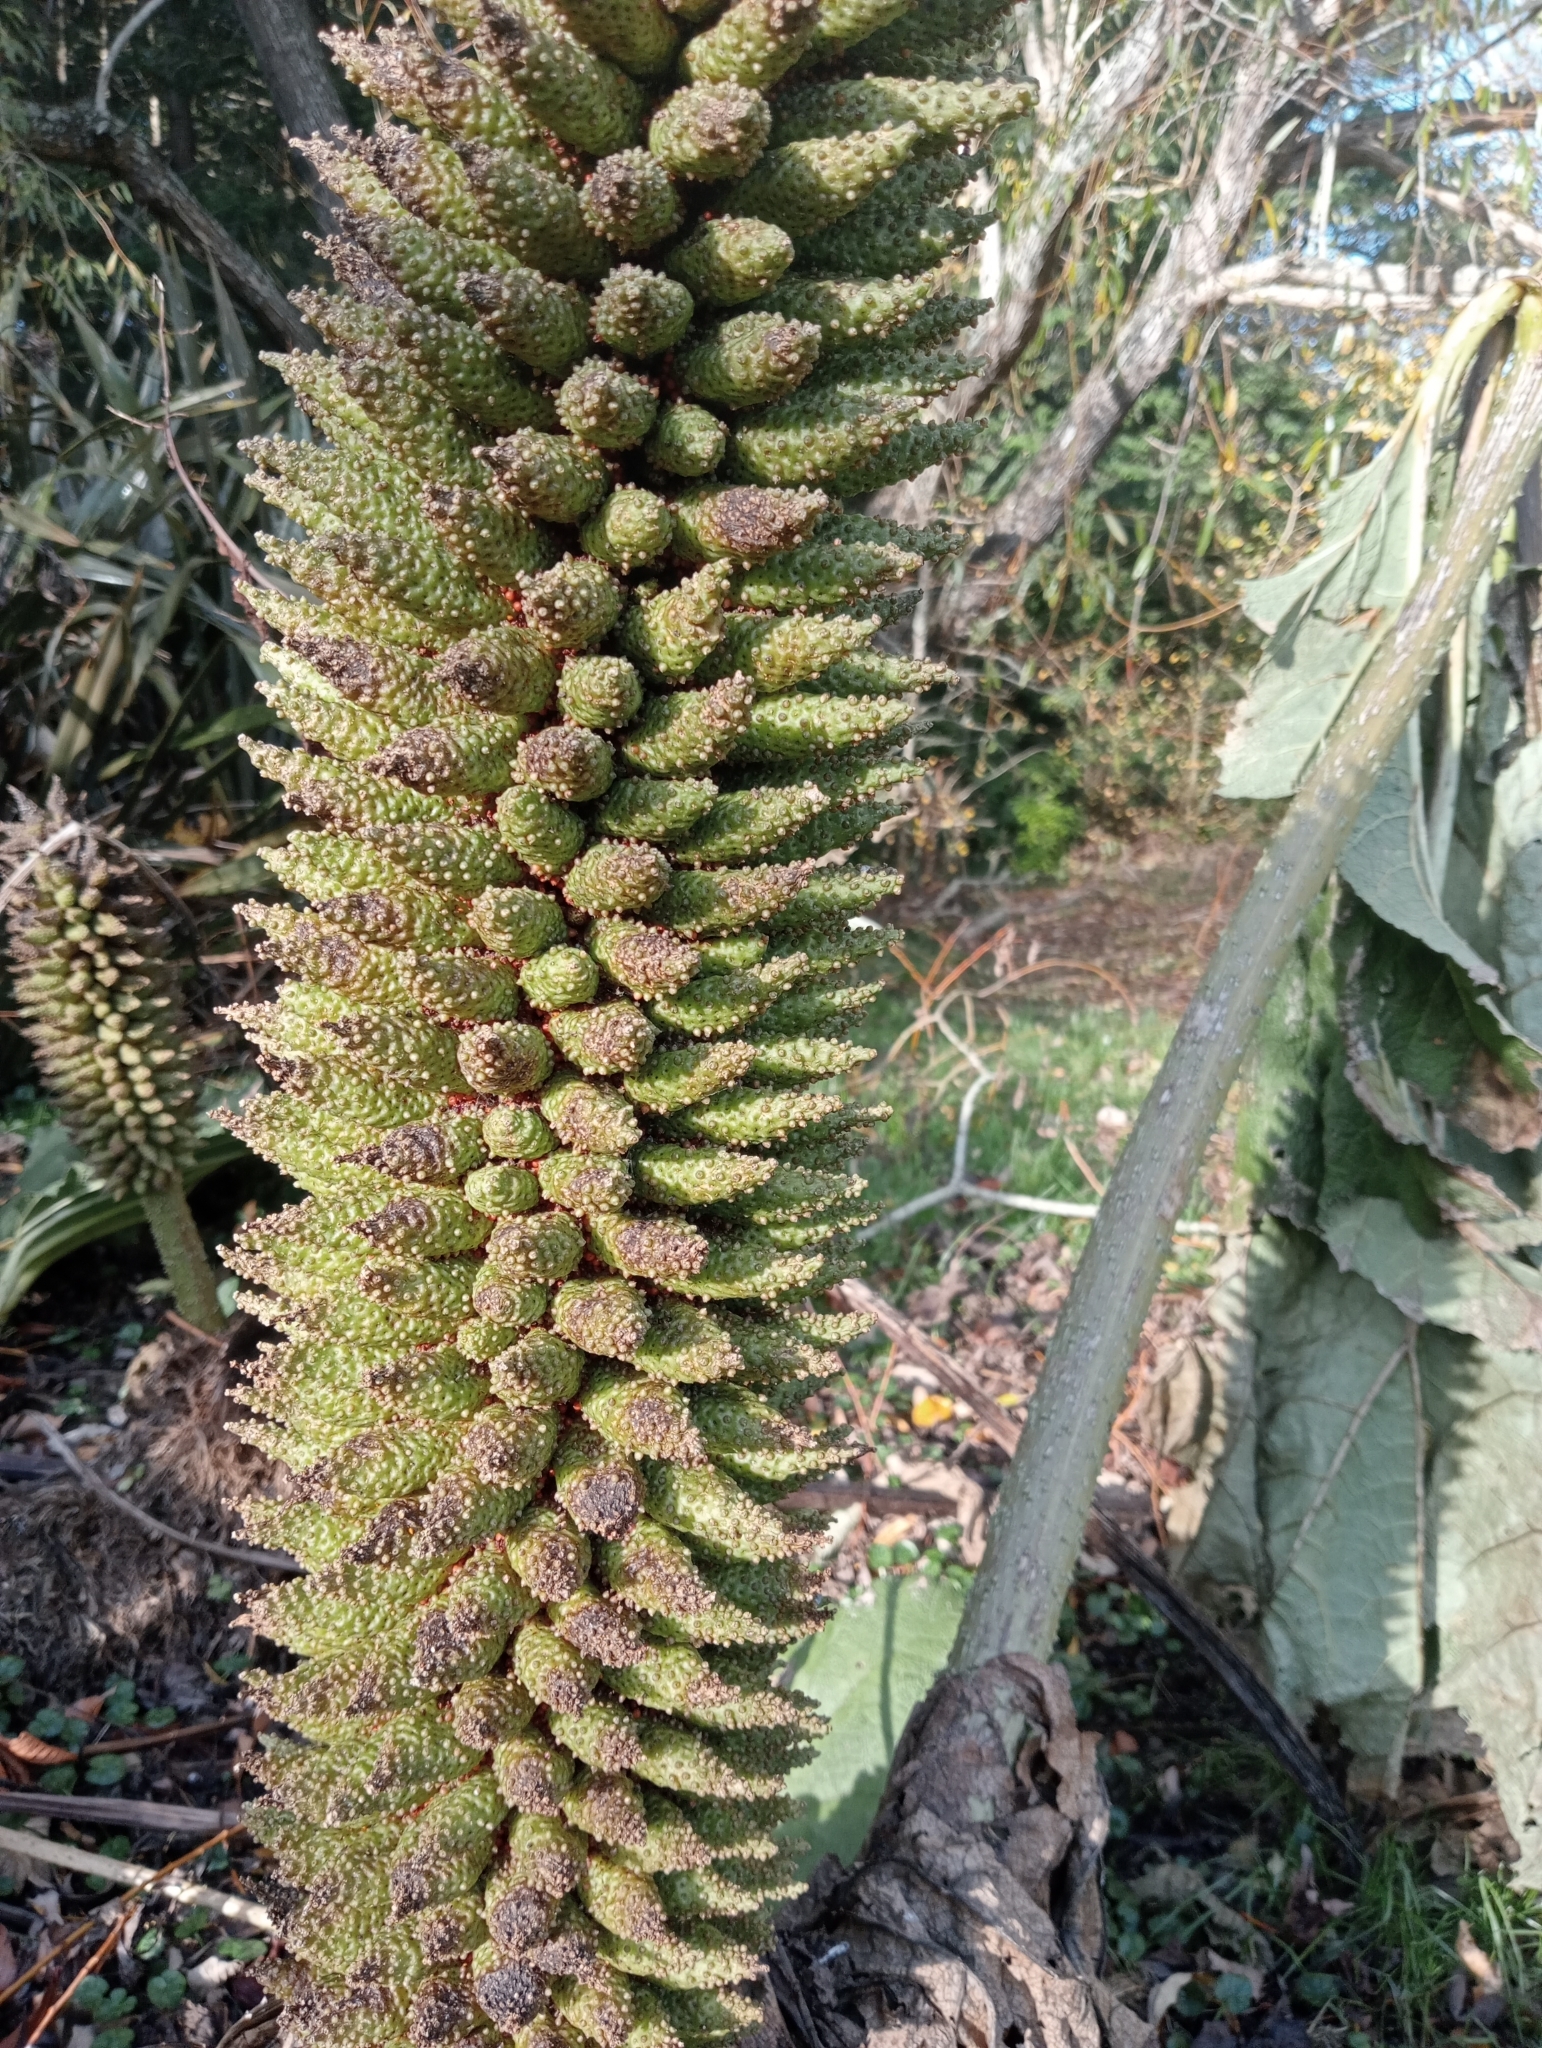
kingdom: Plantae
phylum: Tracheophyta
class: Magnoliopsida
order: Gunnerales
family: Gunneraceae
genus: Gunnera
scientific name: Gunnera tinctoria
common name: Giant-rhubarb
